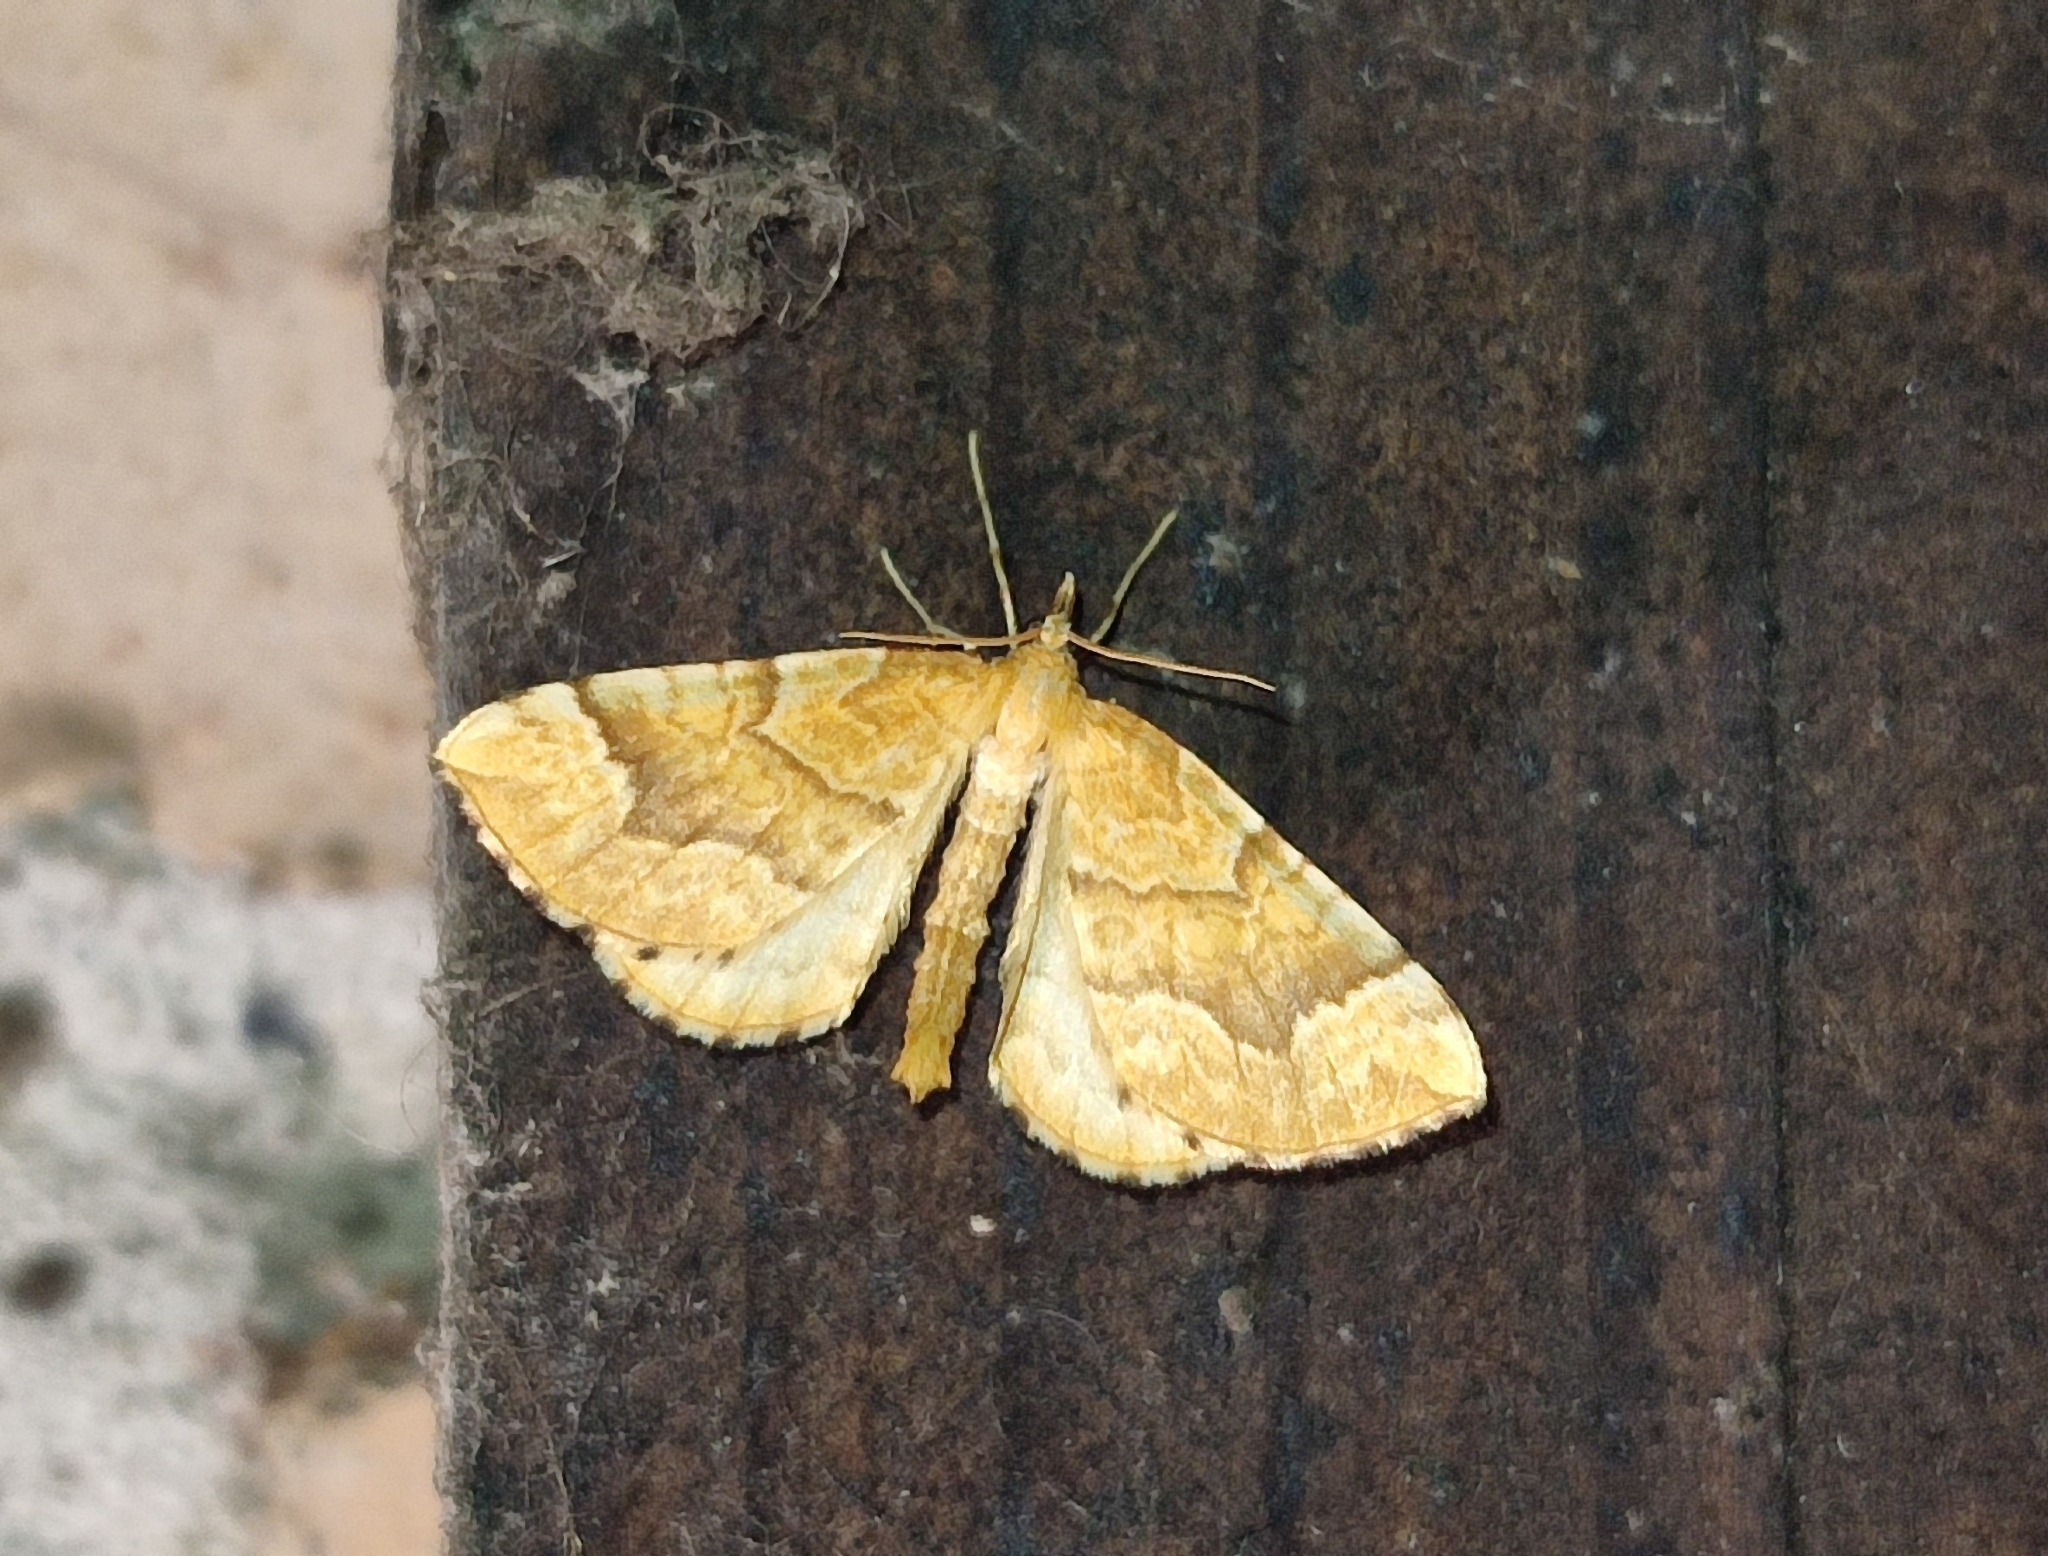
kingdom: Animalia
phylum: Arthropoda
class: Insecta
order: Lepidoptera
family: Geometridae
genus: Eulithis
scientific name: Eulithis mellinata
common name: Spinach
